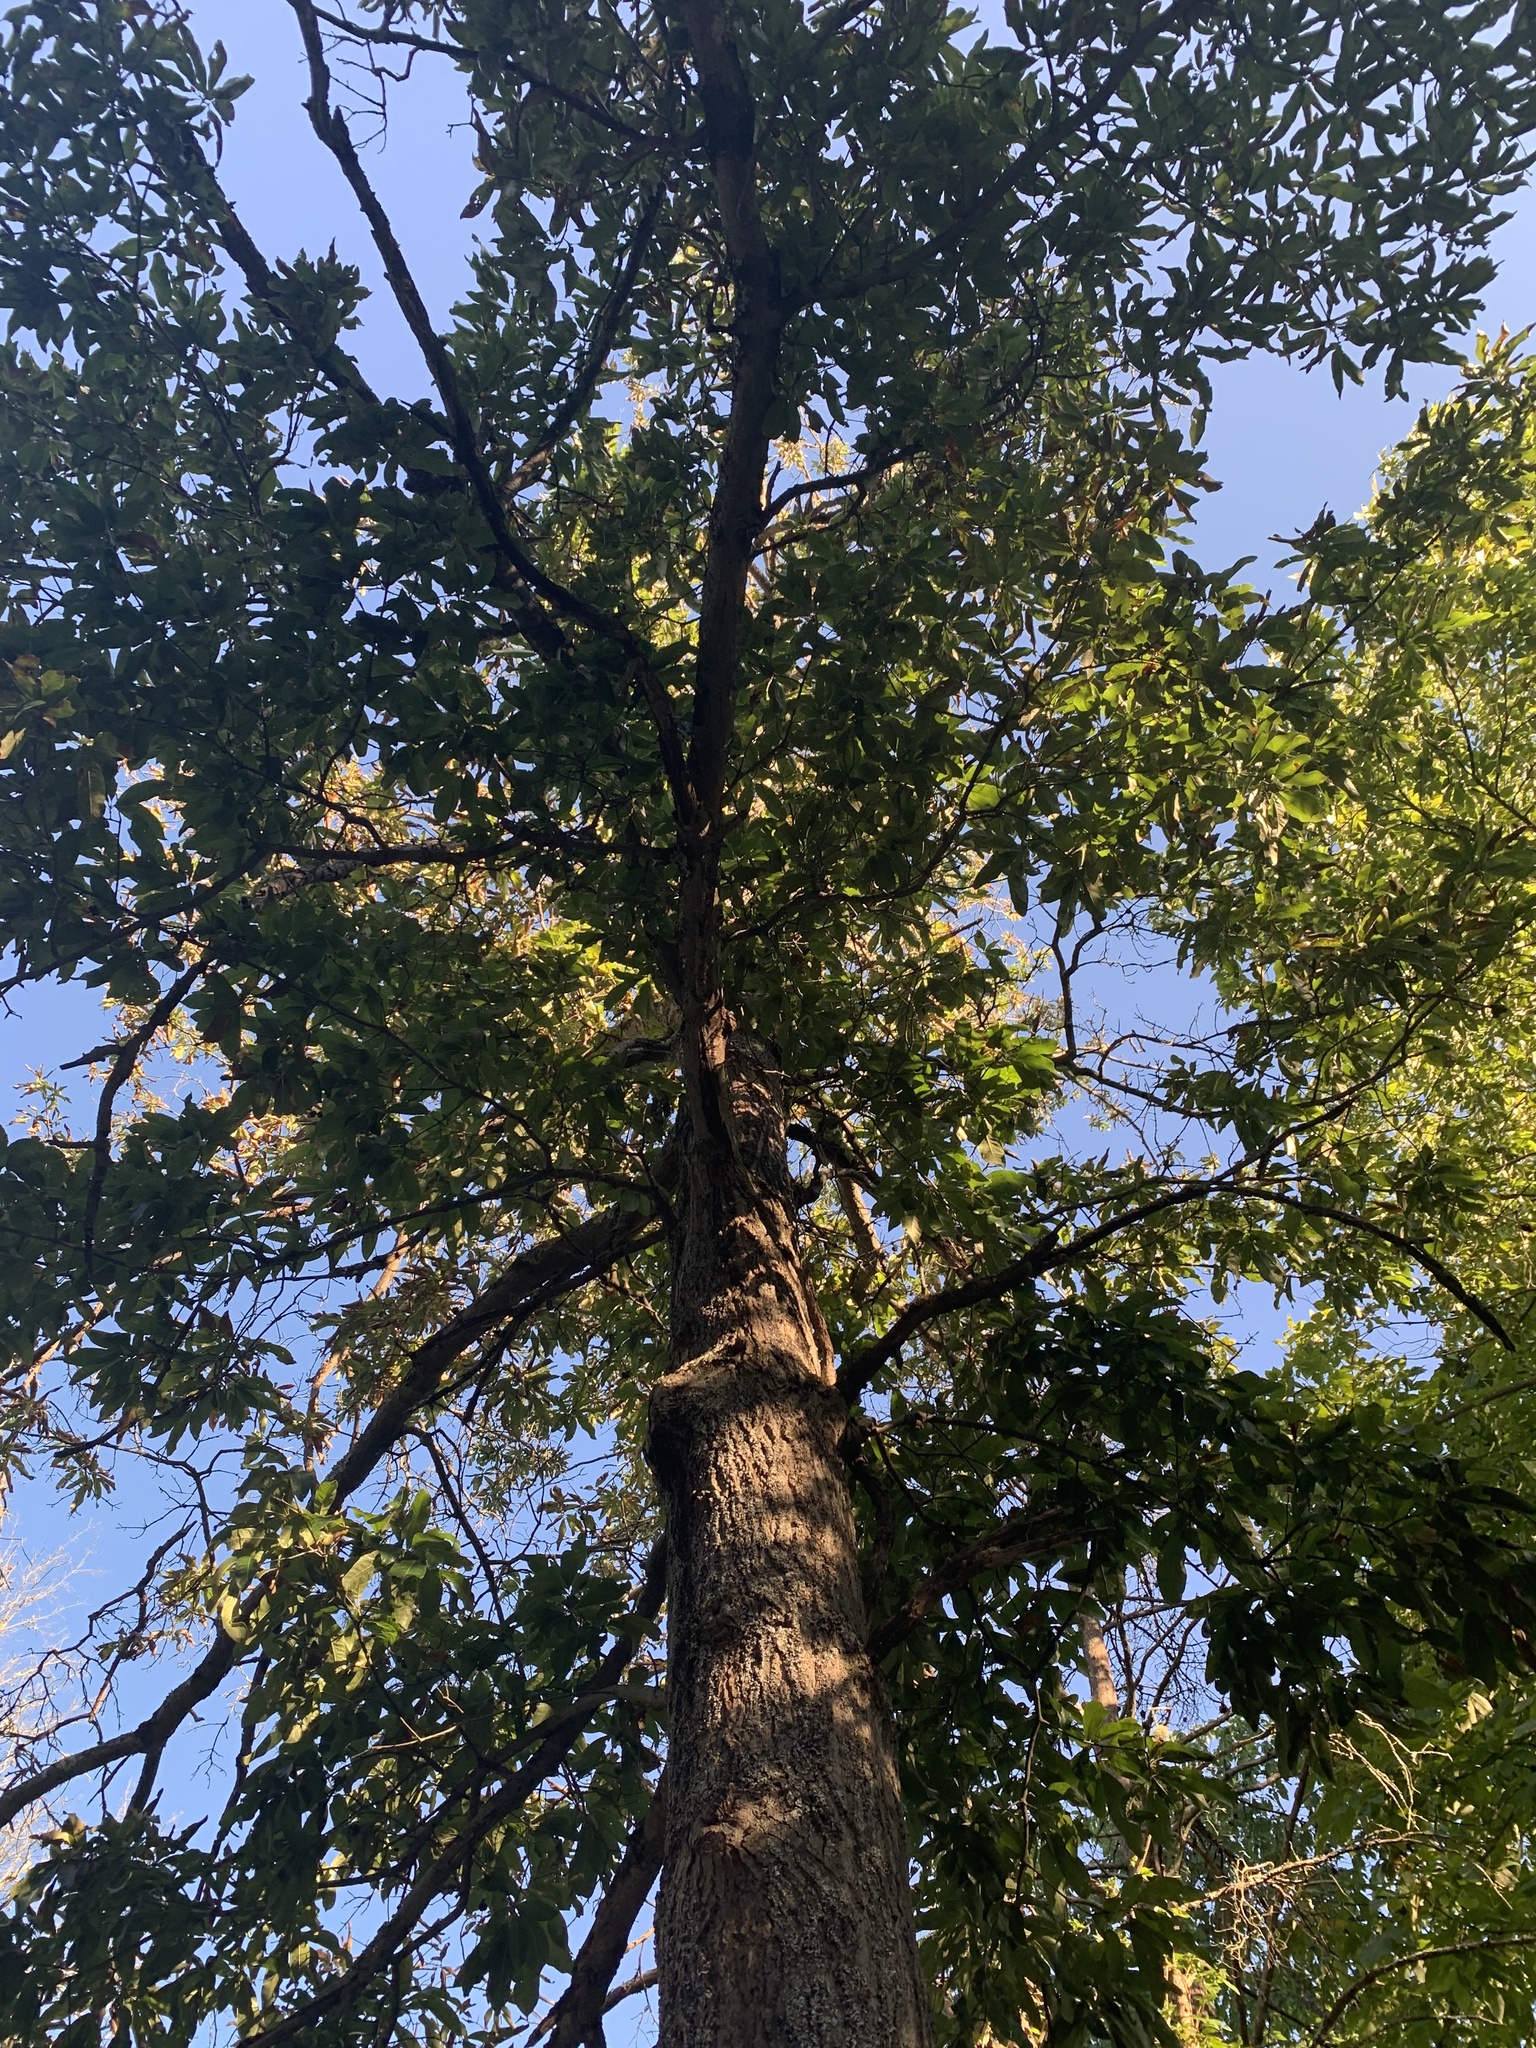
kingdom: Plantae
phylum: Tracheophyta
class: Magnoliopsida
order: Fagales
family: Fagaceae
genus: Quercus
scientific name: Quercus imbricaria
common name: Shingle oak
